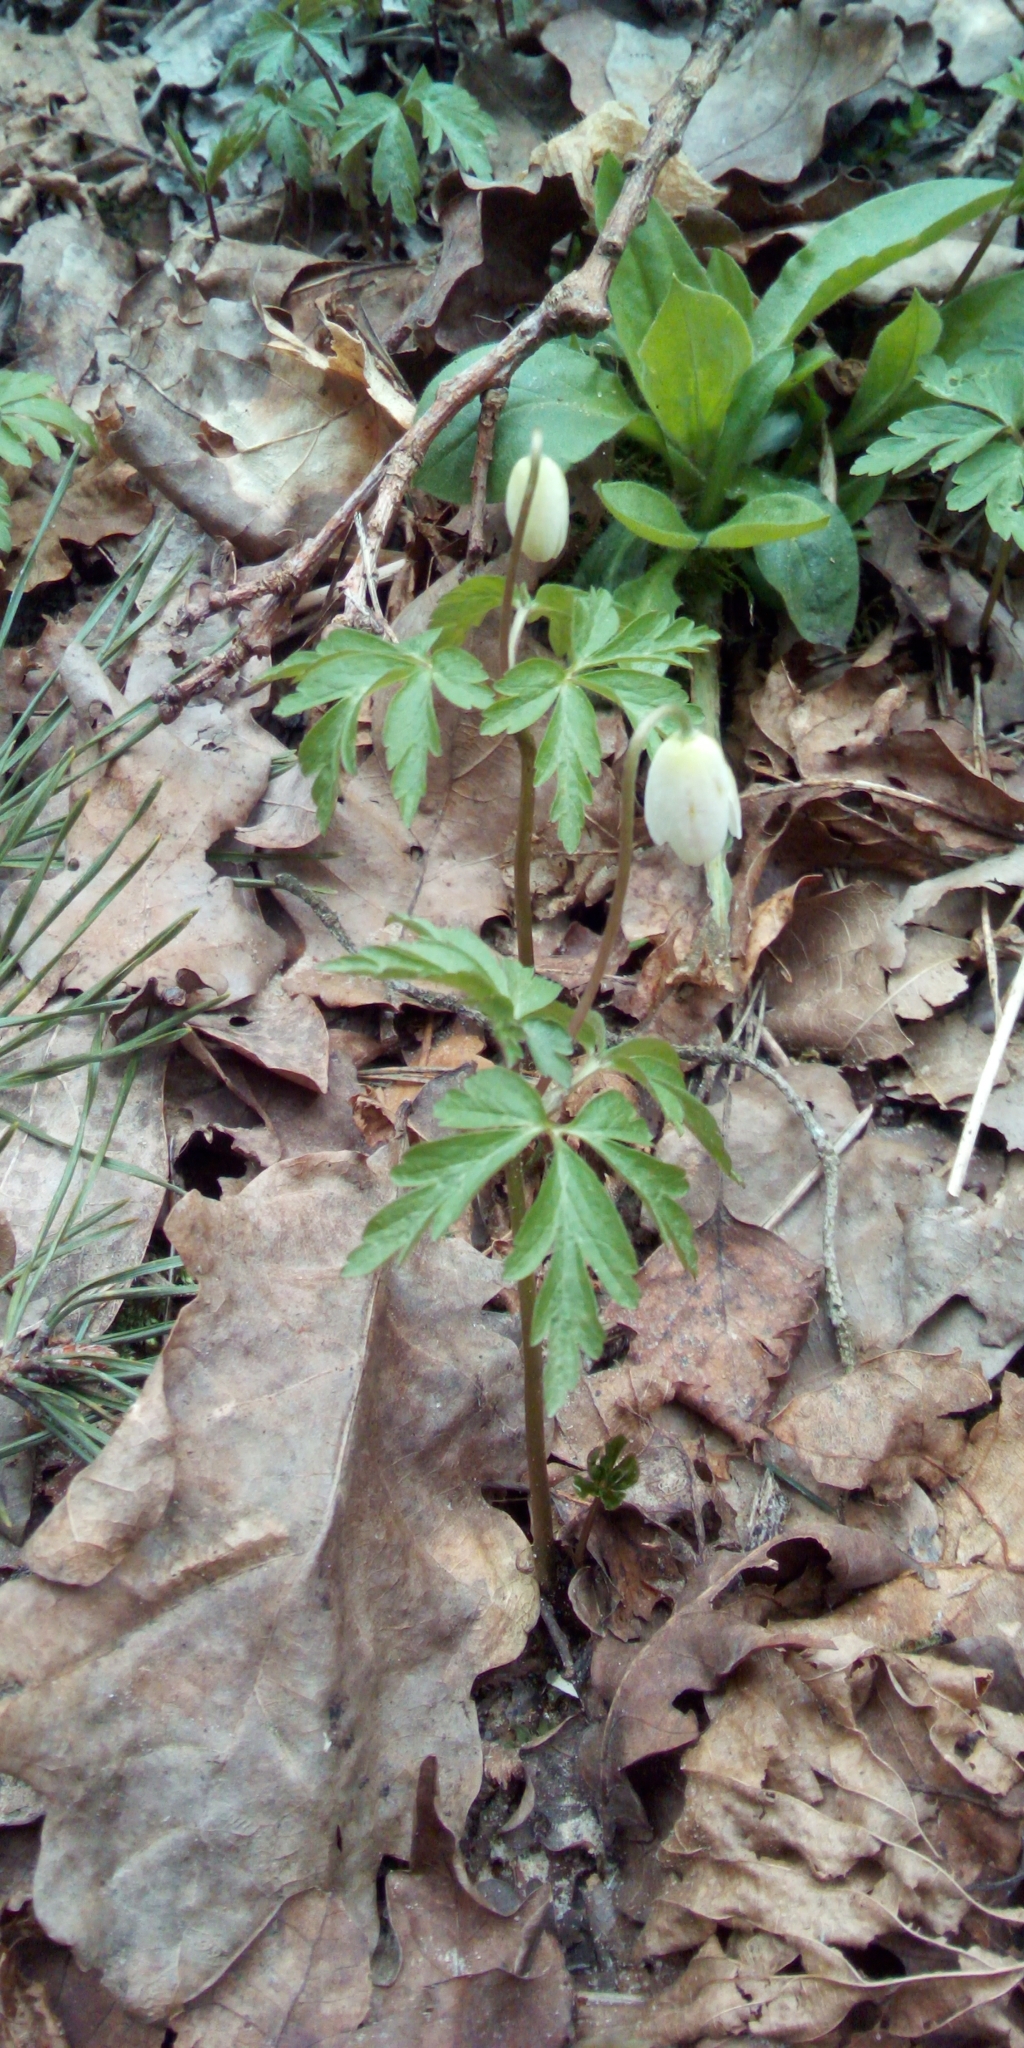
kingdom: Plantae
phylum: Tracheophyta
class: Magnoliopsida
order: Ranunculales
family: Ranunculaceae
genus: Anemone
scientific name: Anemone nemorosa
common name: Wood anemone
